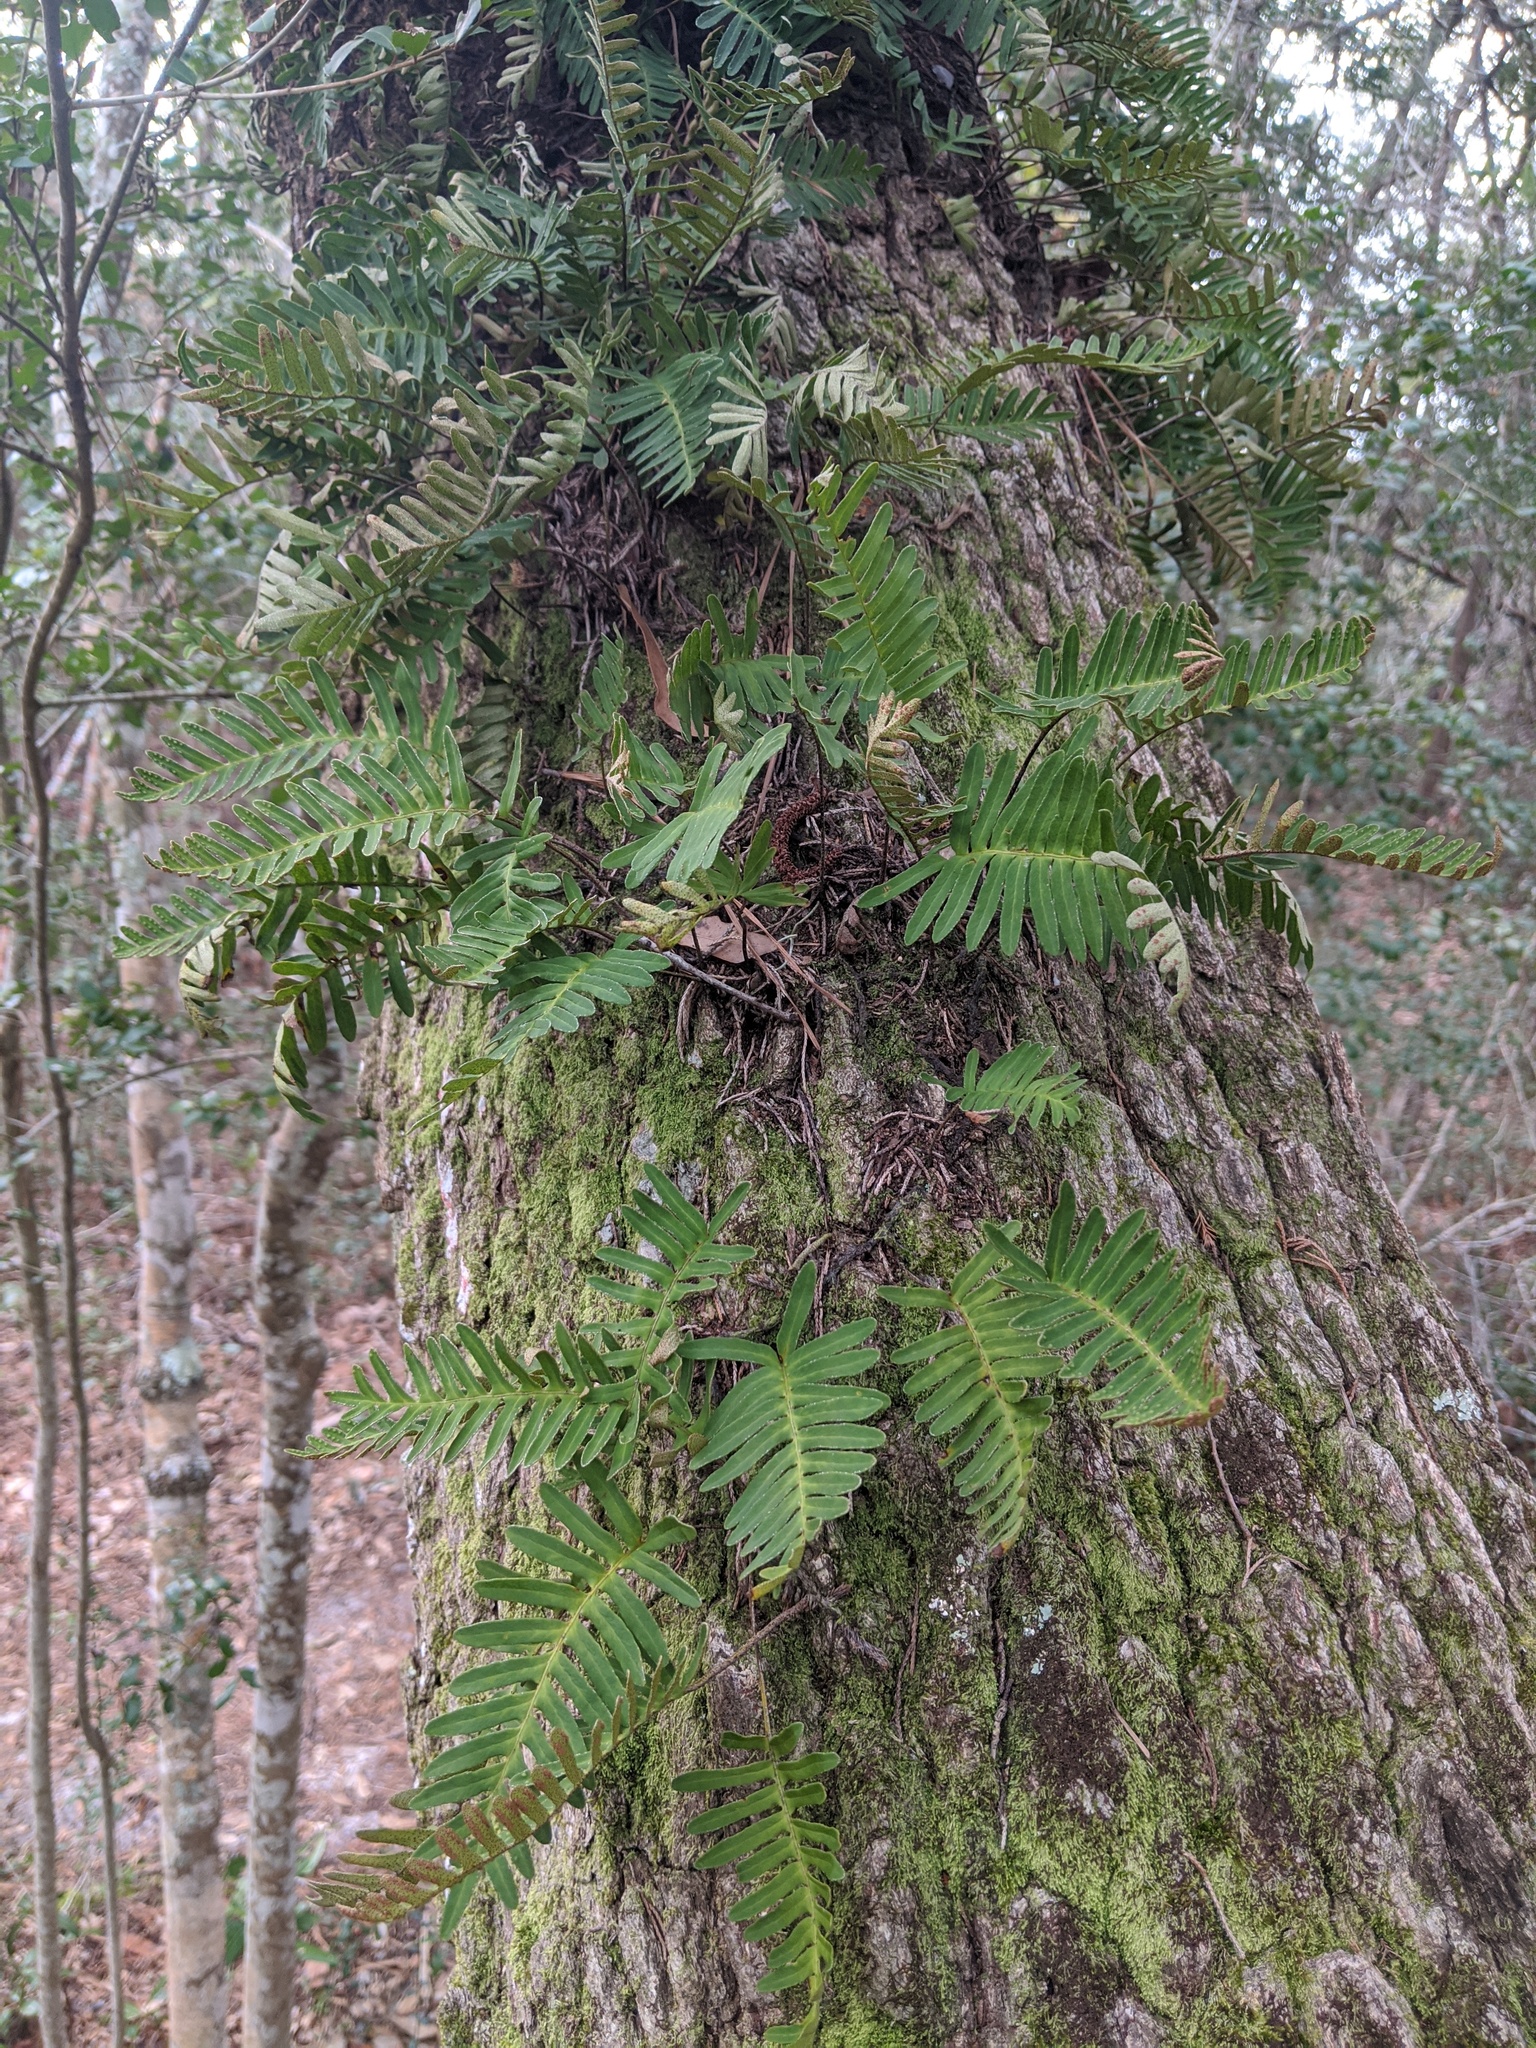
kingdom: Plantae
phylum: Tracheophyta
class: Polypodiopsida
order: Polypodiales
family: Polypodiaceae
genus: Pleopeltis
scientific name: Pleopeltis michauxiana
